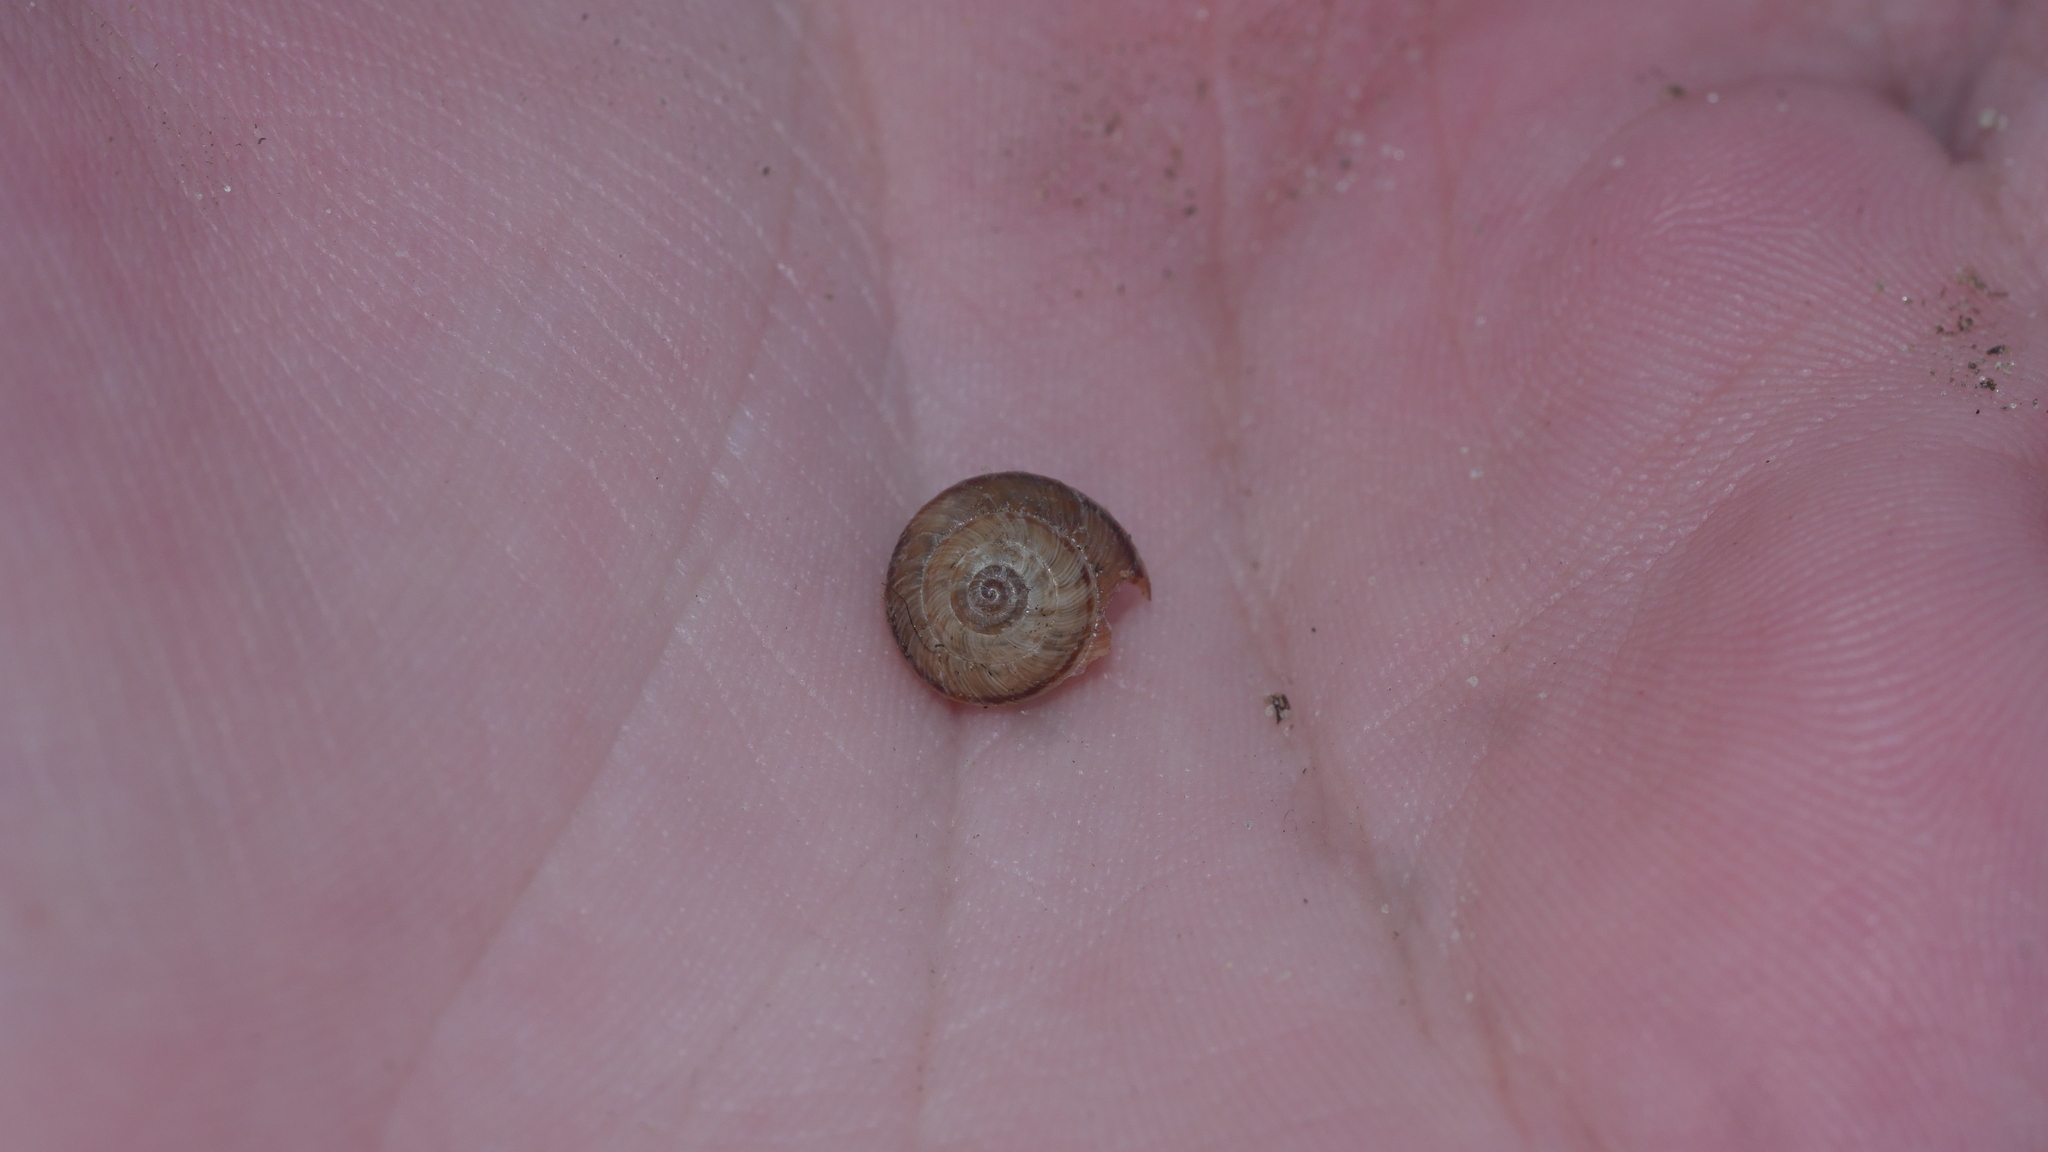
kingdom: Animalia
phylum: Mollusca
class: Gastropoda
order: Stylommatophora
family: Geomitridae
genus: Cernuella
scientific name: Cernuella cisalpina
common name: Maritime gardensnail
